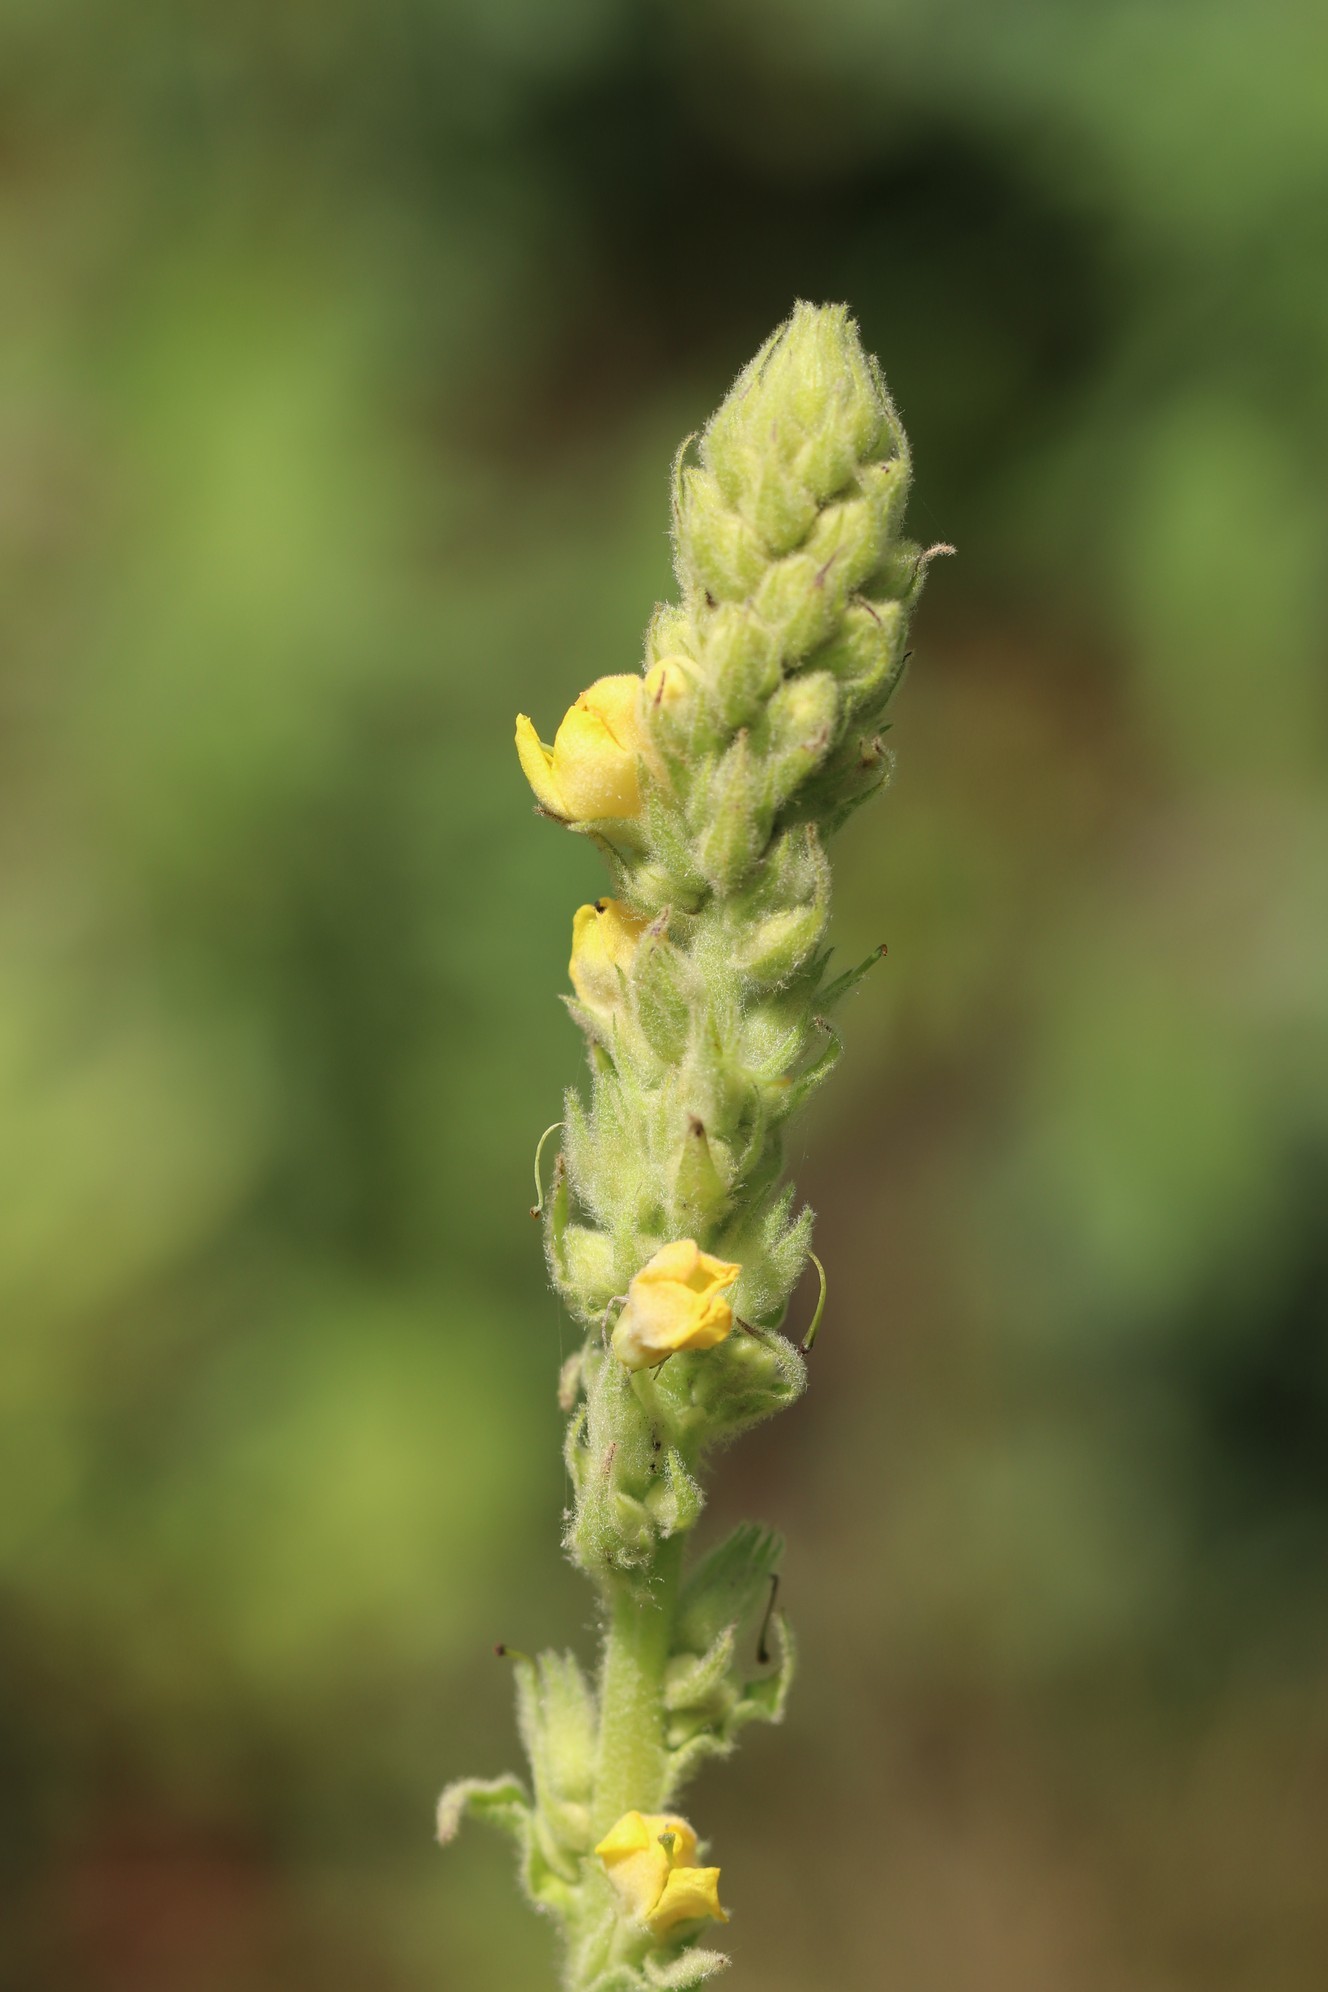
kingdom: Plantae
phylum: Tracheophyta
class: Magnoliopsida
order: Lamiales
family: Scrophulariaceae
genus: Verbascum
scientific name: Verbascum thapsus
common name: Common mullein
